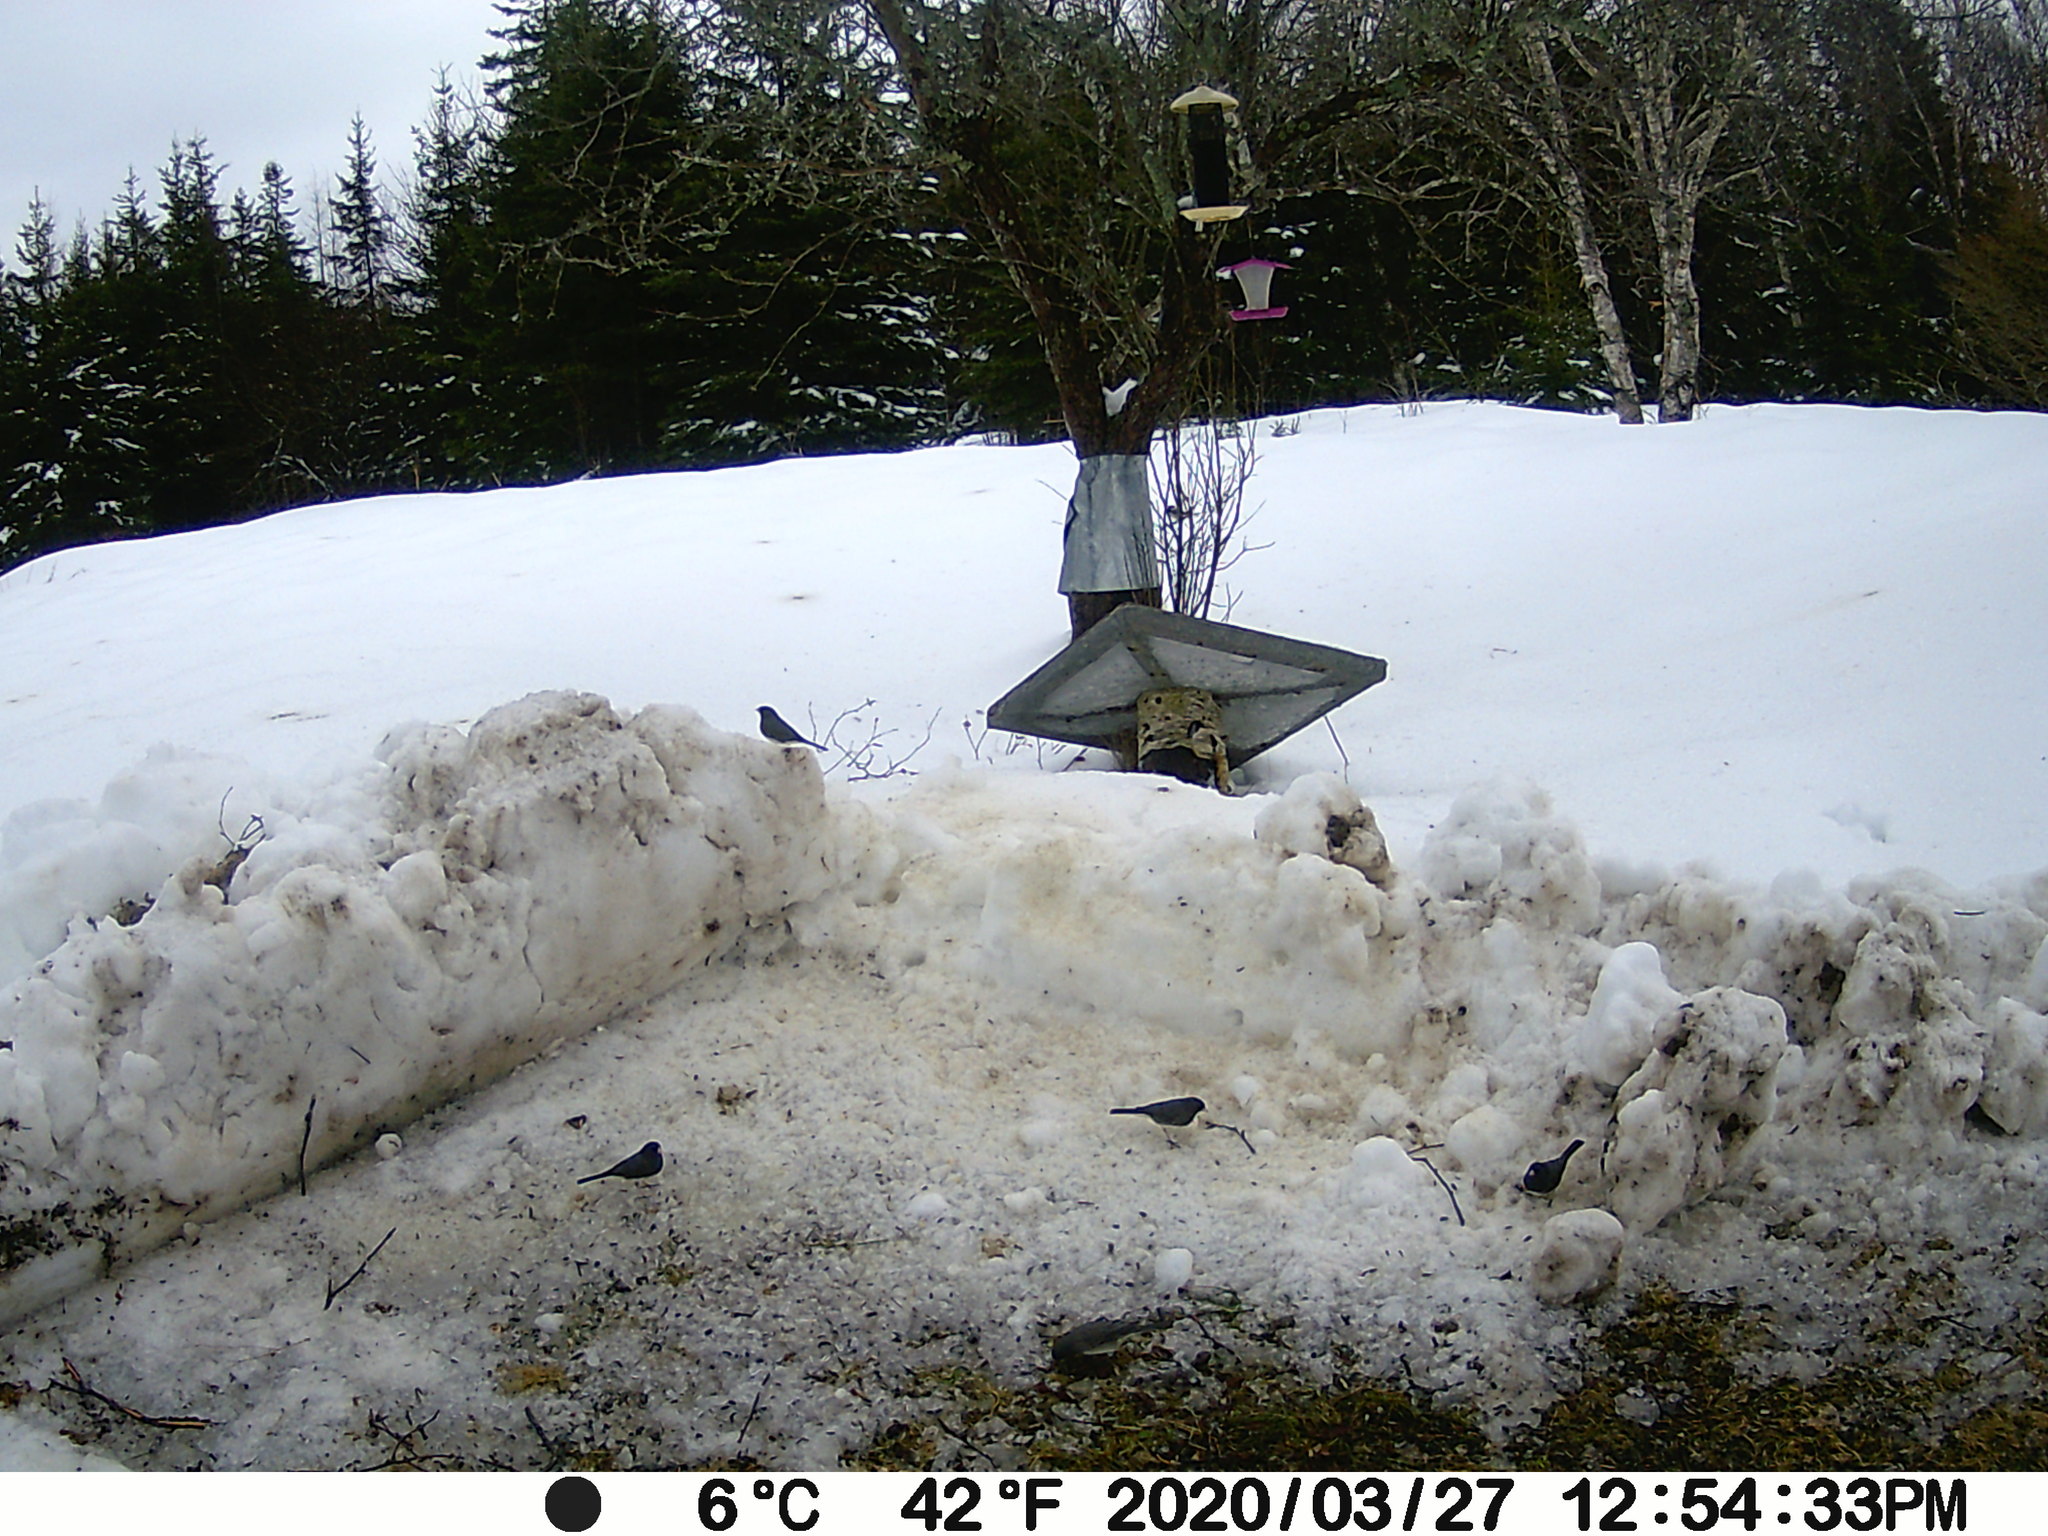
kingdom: Animalia
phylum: Chordata
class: Aves
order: Passeriformes
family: Passerellidae
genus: Junco
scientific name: Junco hyemalis
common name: Dark-eyed junco
